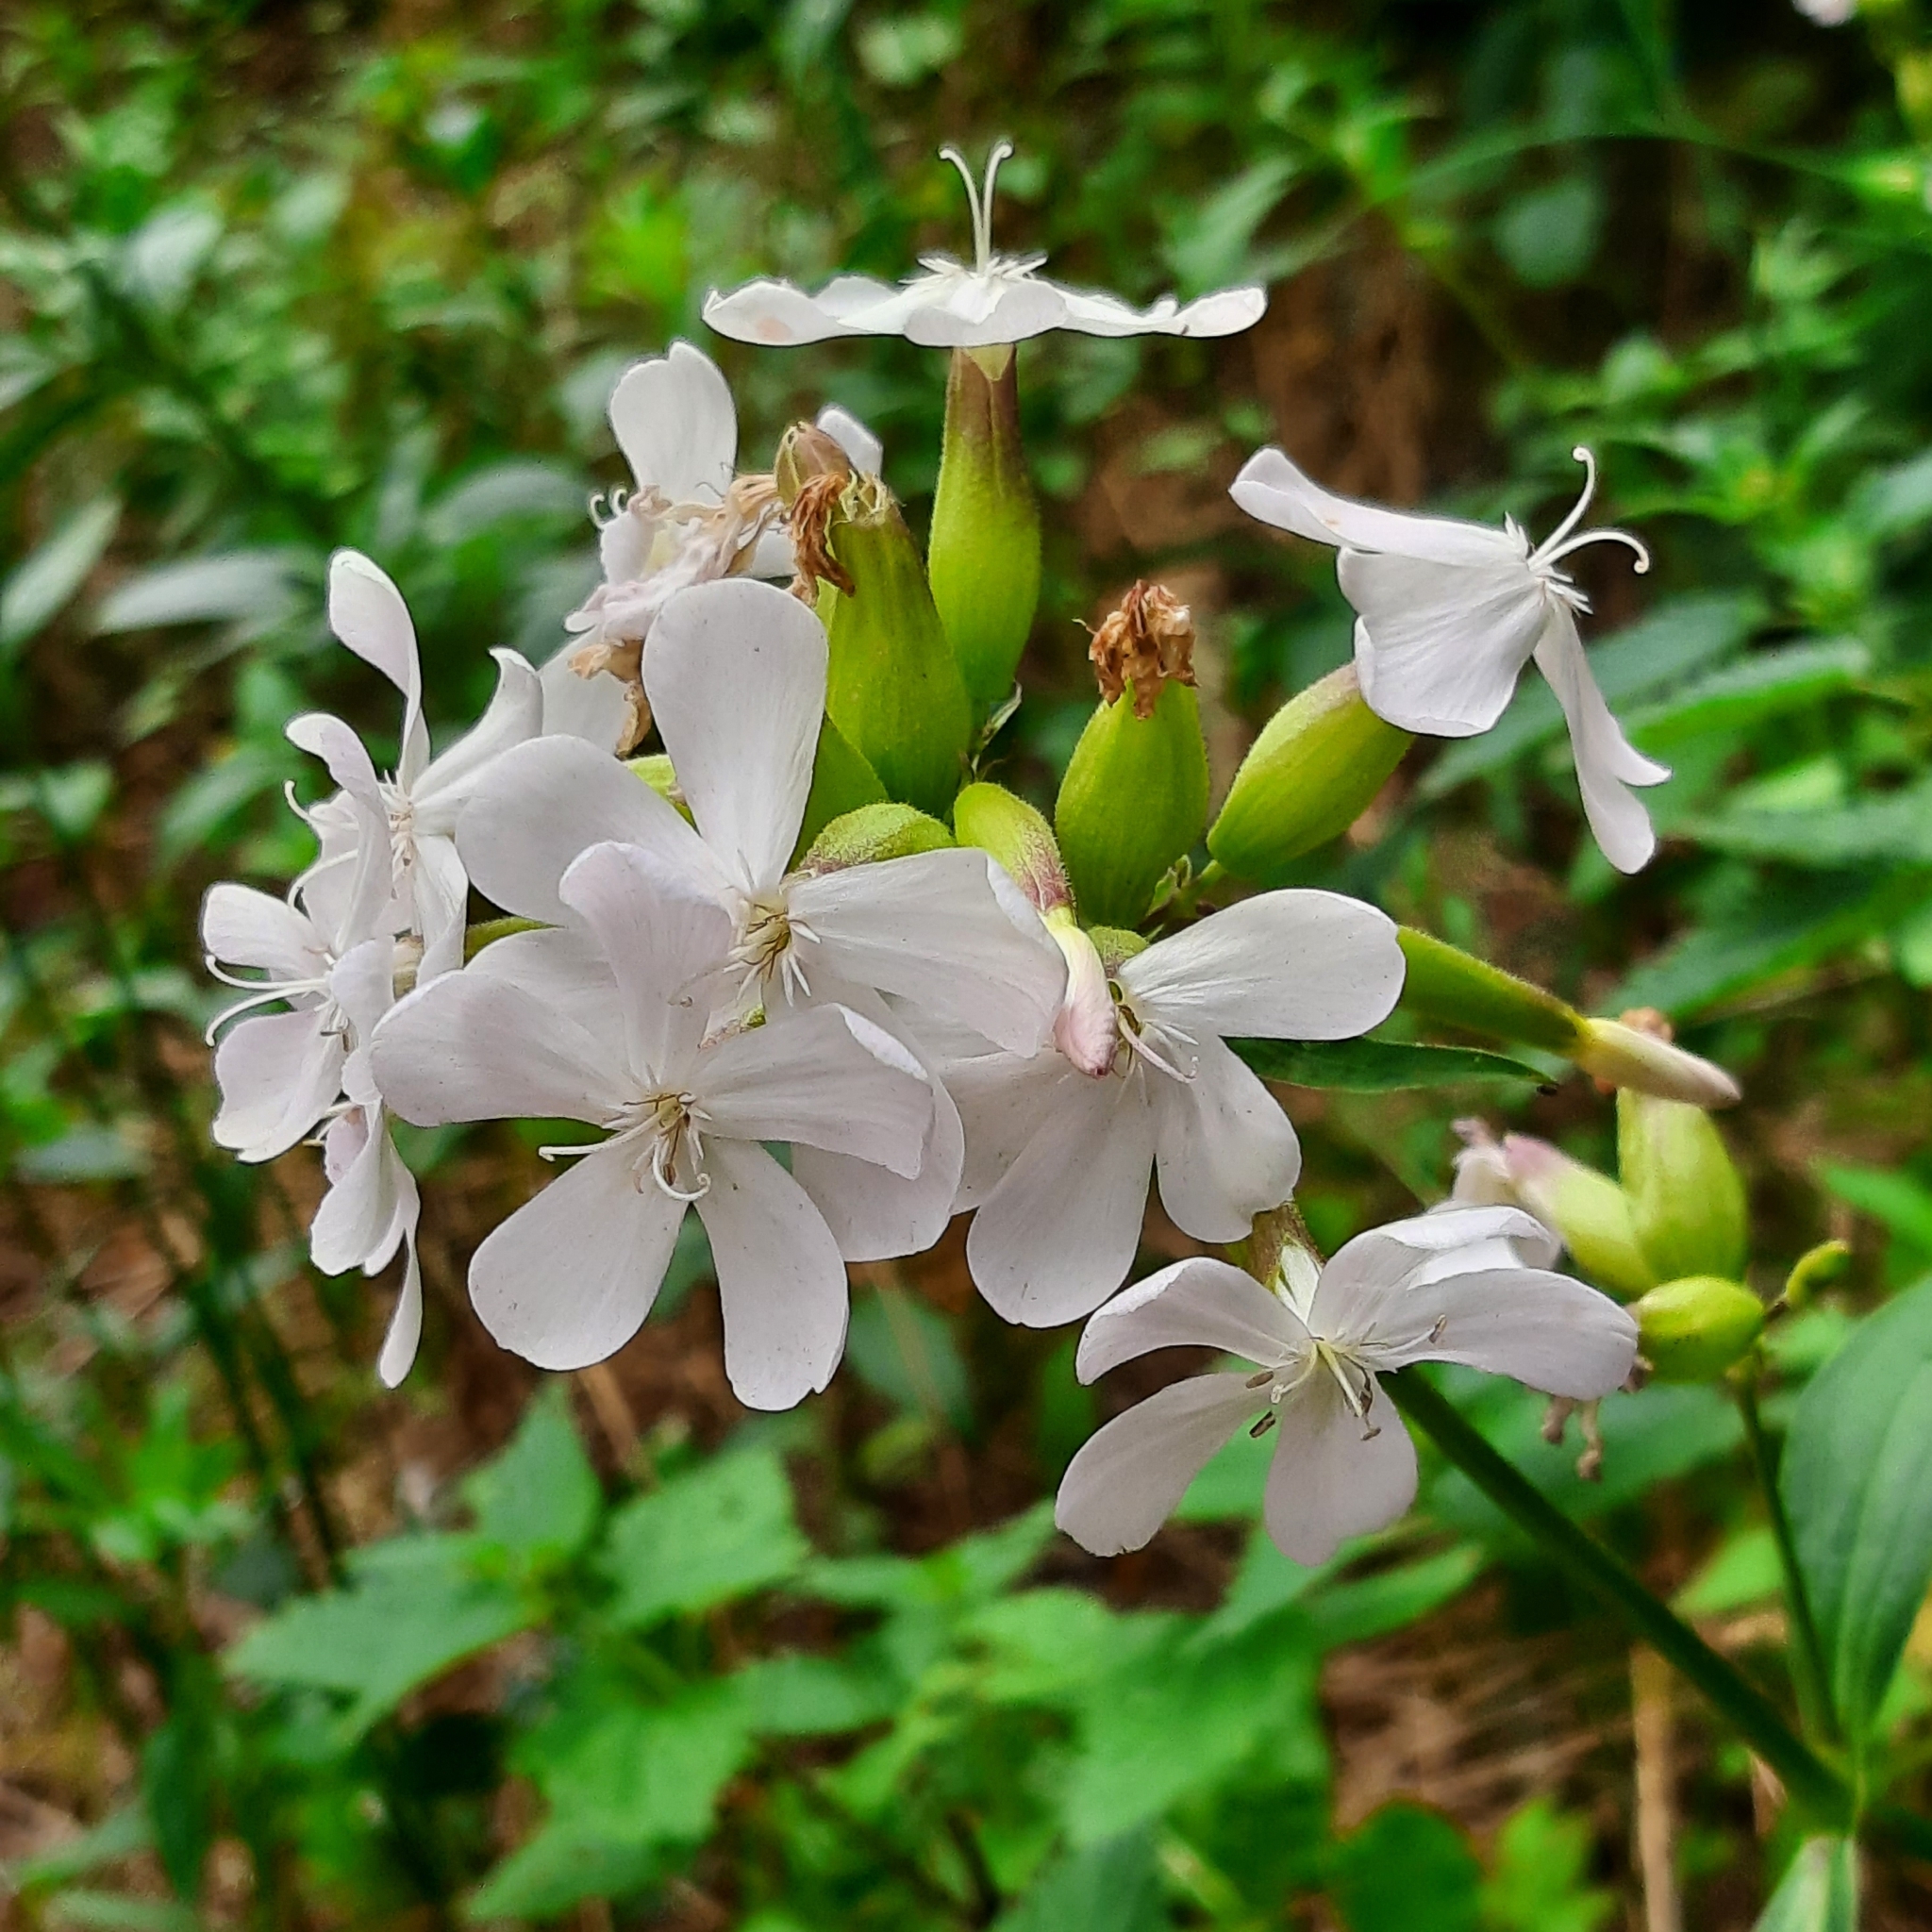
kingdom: Plantae
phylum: Tracheophyta
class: Magnoliopsida
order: Caryophyllales
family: Caryophyllaceae
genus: Saponaria
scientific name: Saponaria officinalis
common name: Soapwort
